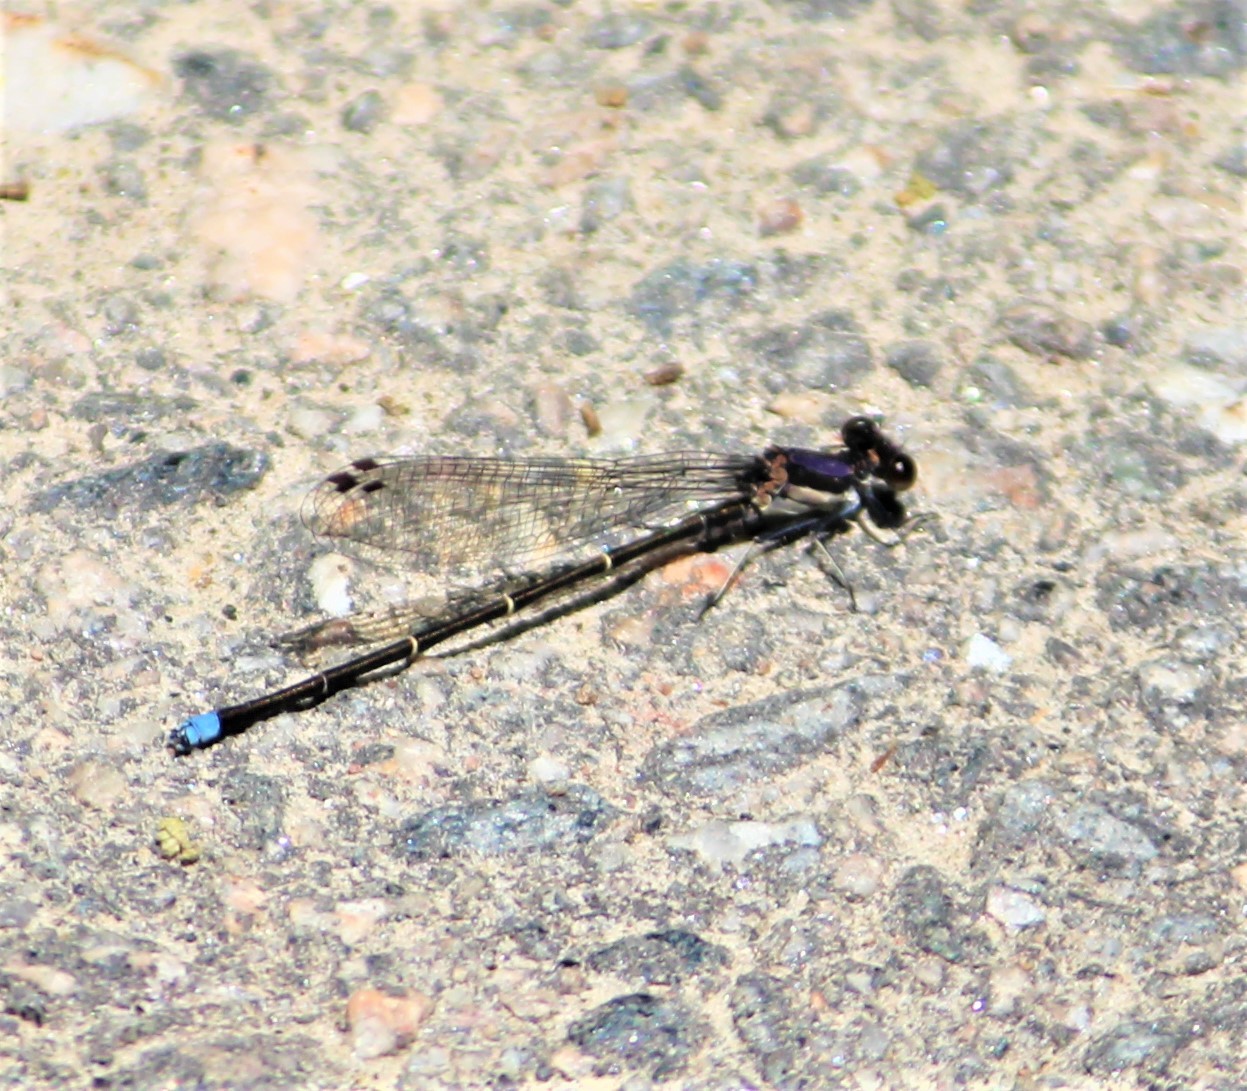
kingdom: Animalia
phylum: Arthropoda
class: Insecta
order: Odonata
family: Coenagrionidae
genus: Argia
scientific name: Argia tibialis
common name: Blue-tipped dancer
